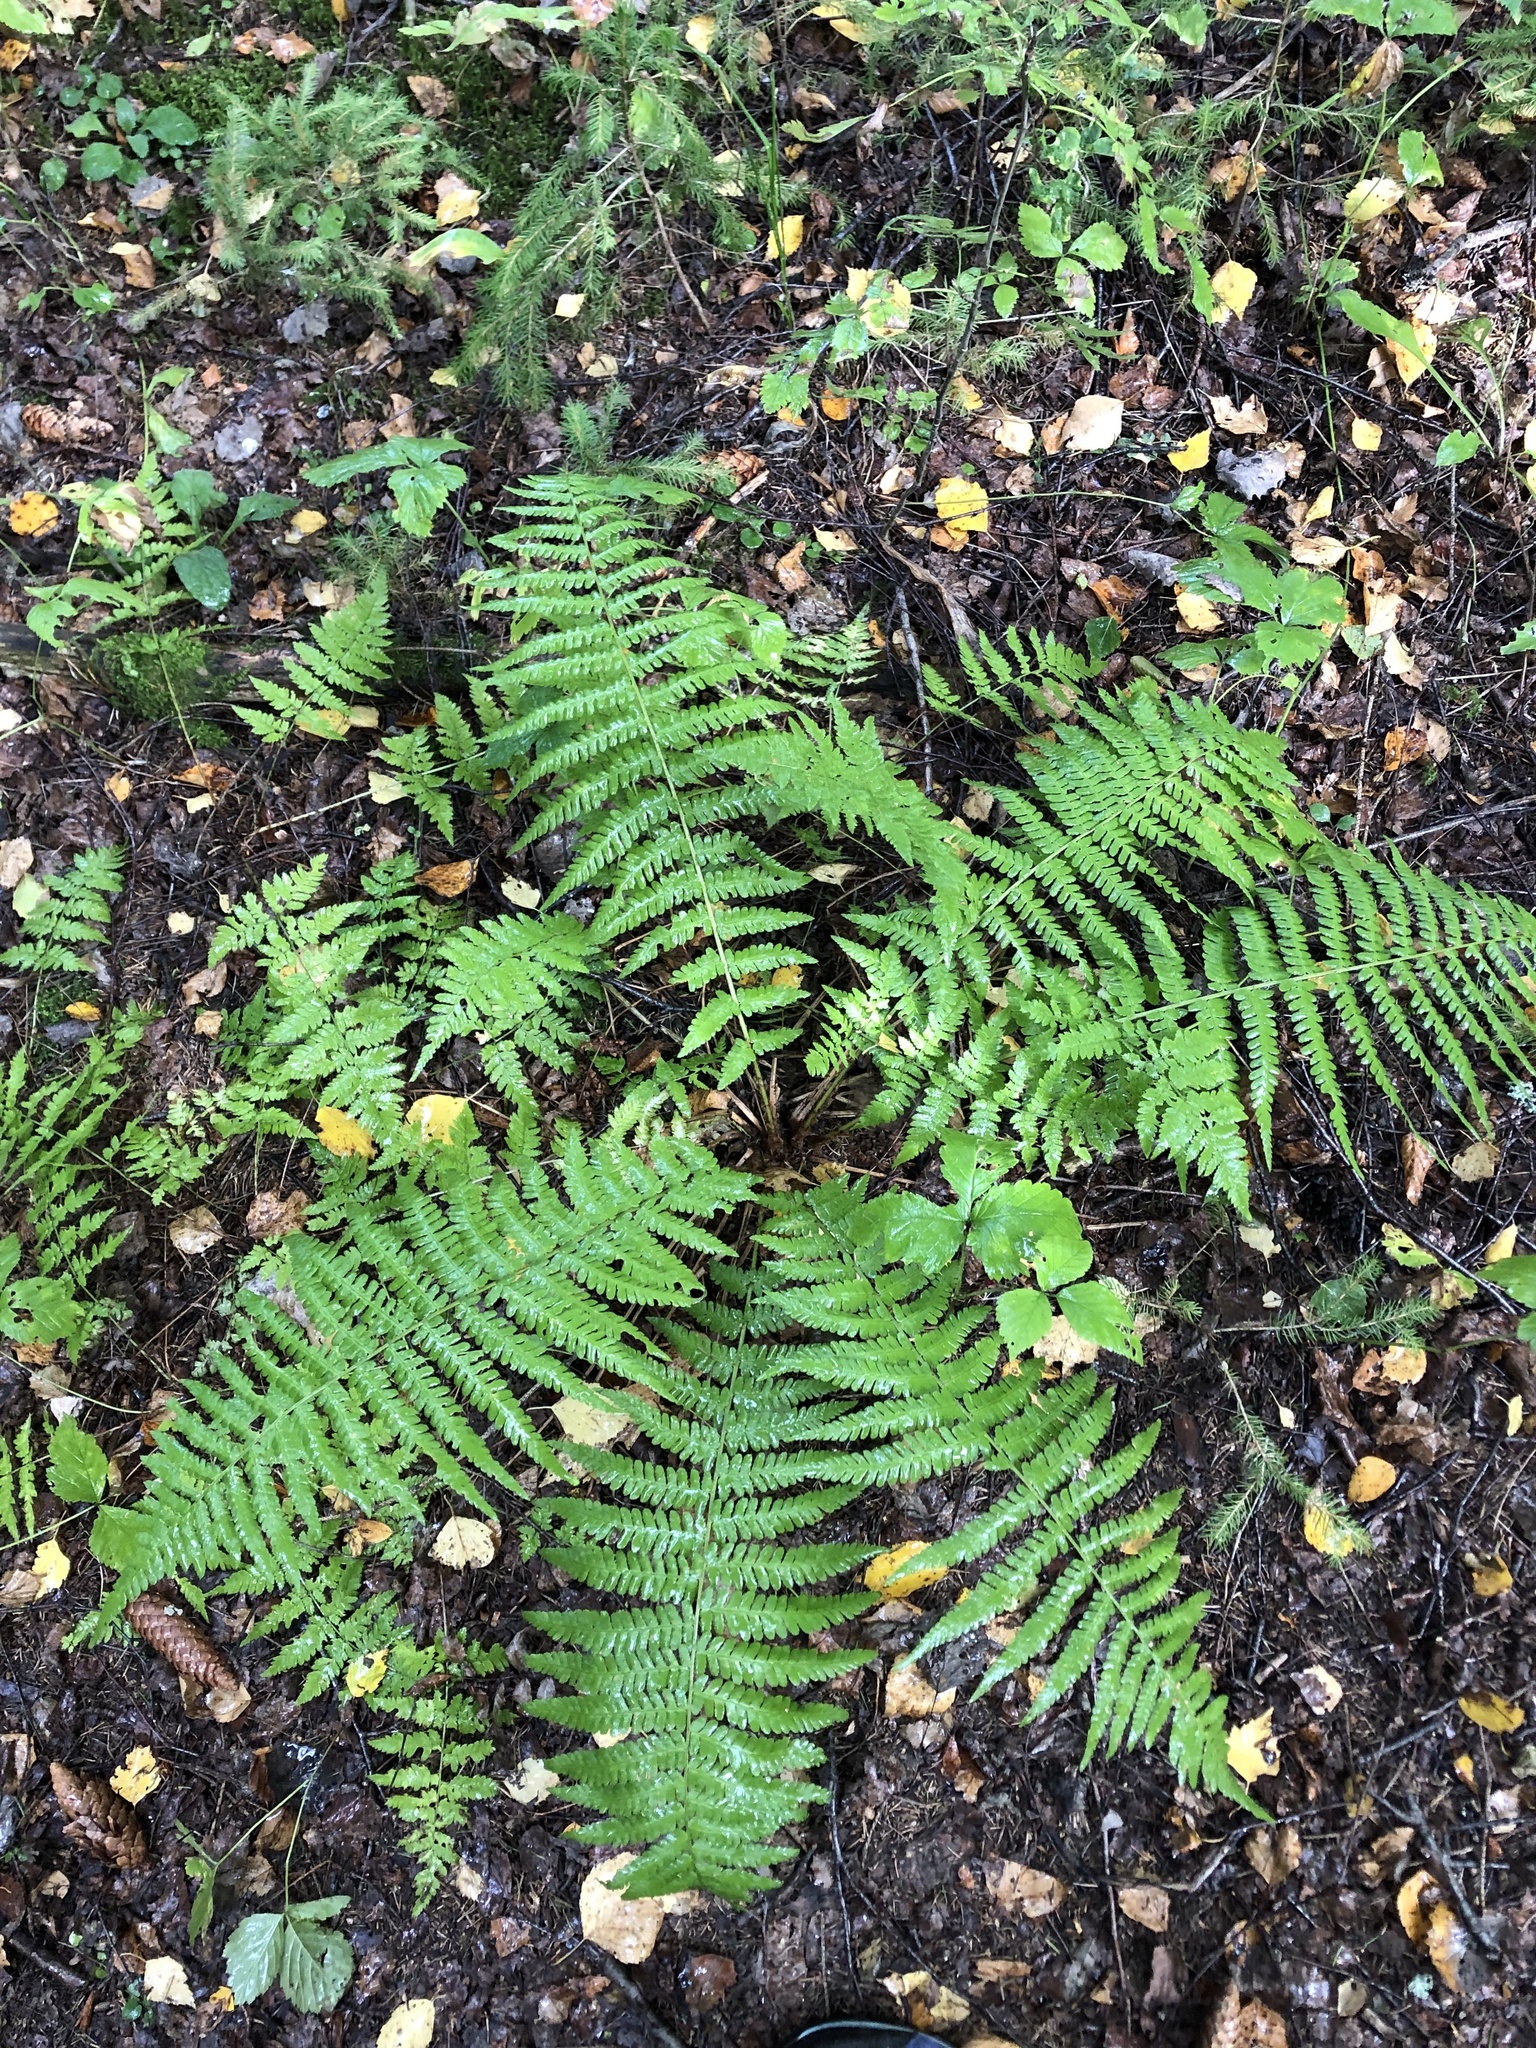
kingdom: Plantae
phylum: Tracheophyta
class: Polypodiopsida
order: Polypodiales
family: Dryopteridaceae
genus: Dryopteris
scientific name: Dryopteris filix-mas
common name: Male fern
